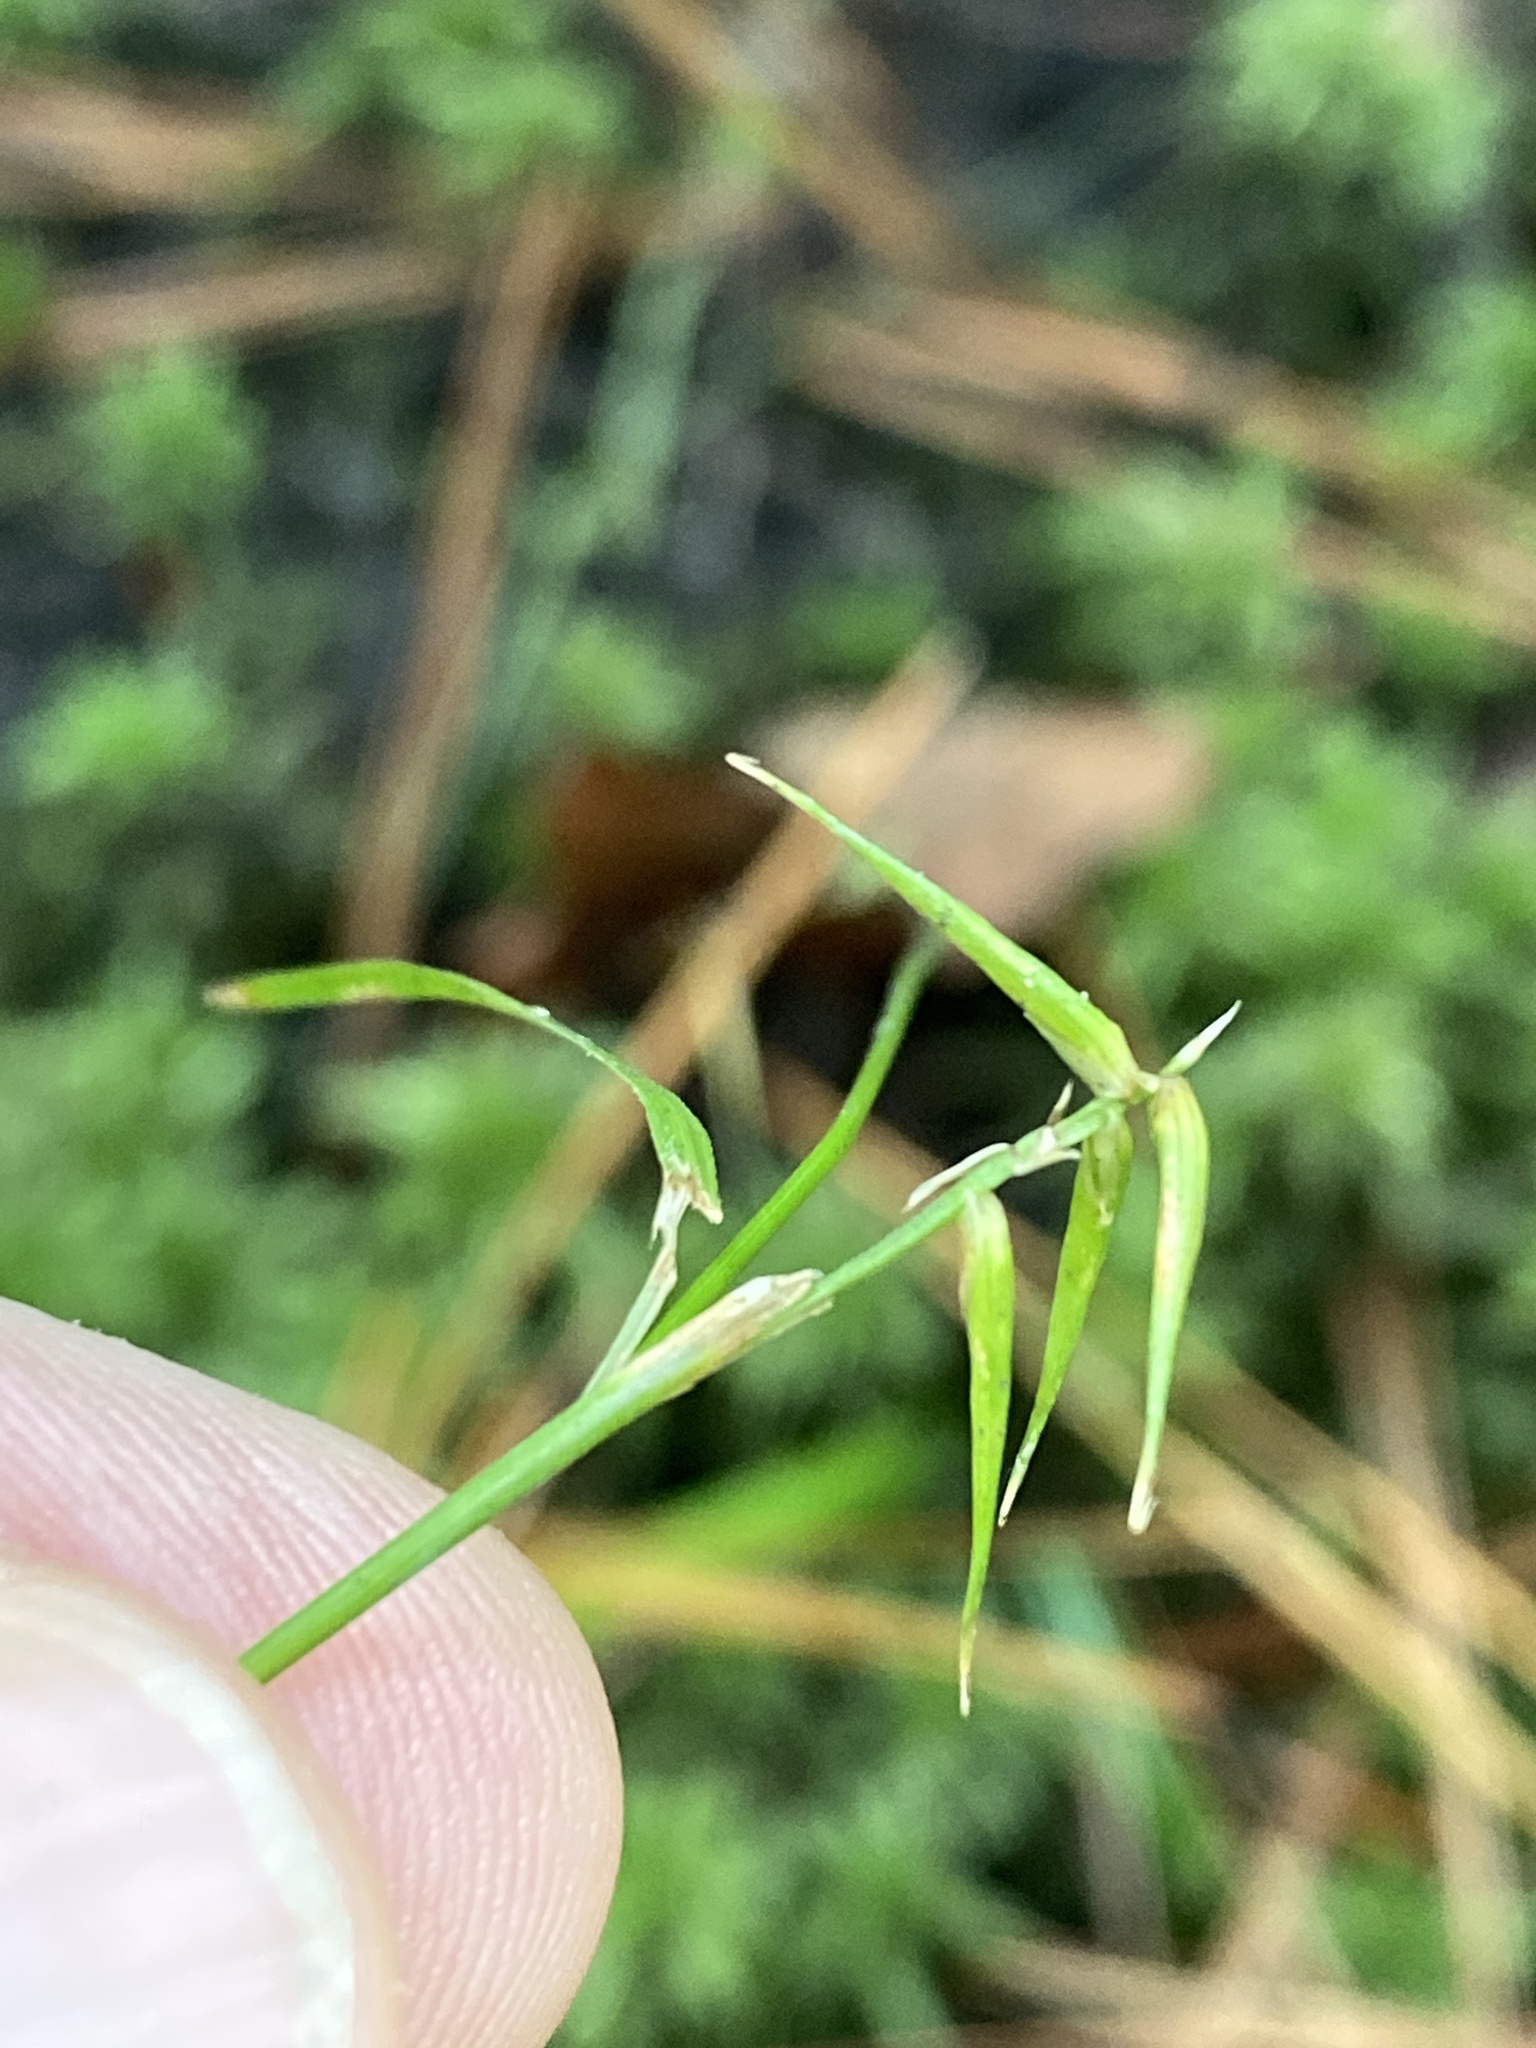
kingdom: Plantae
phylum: Tracheophyta
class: Liliopsida
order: Poales
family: Cyperaceae
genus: Carex
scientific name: Carex collinsii
